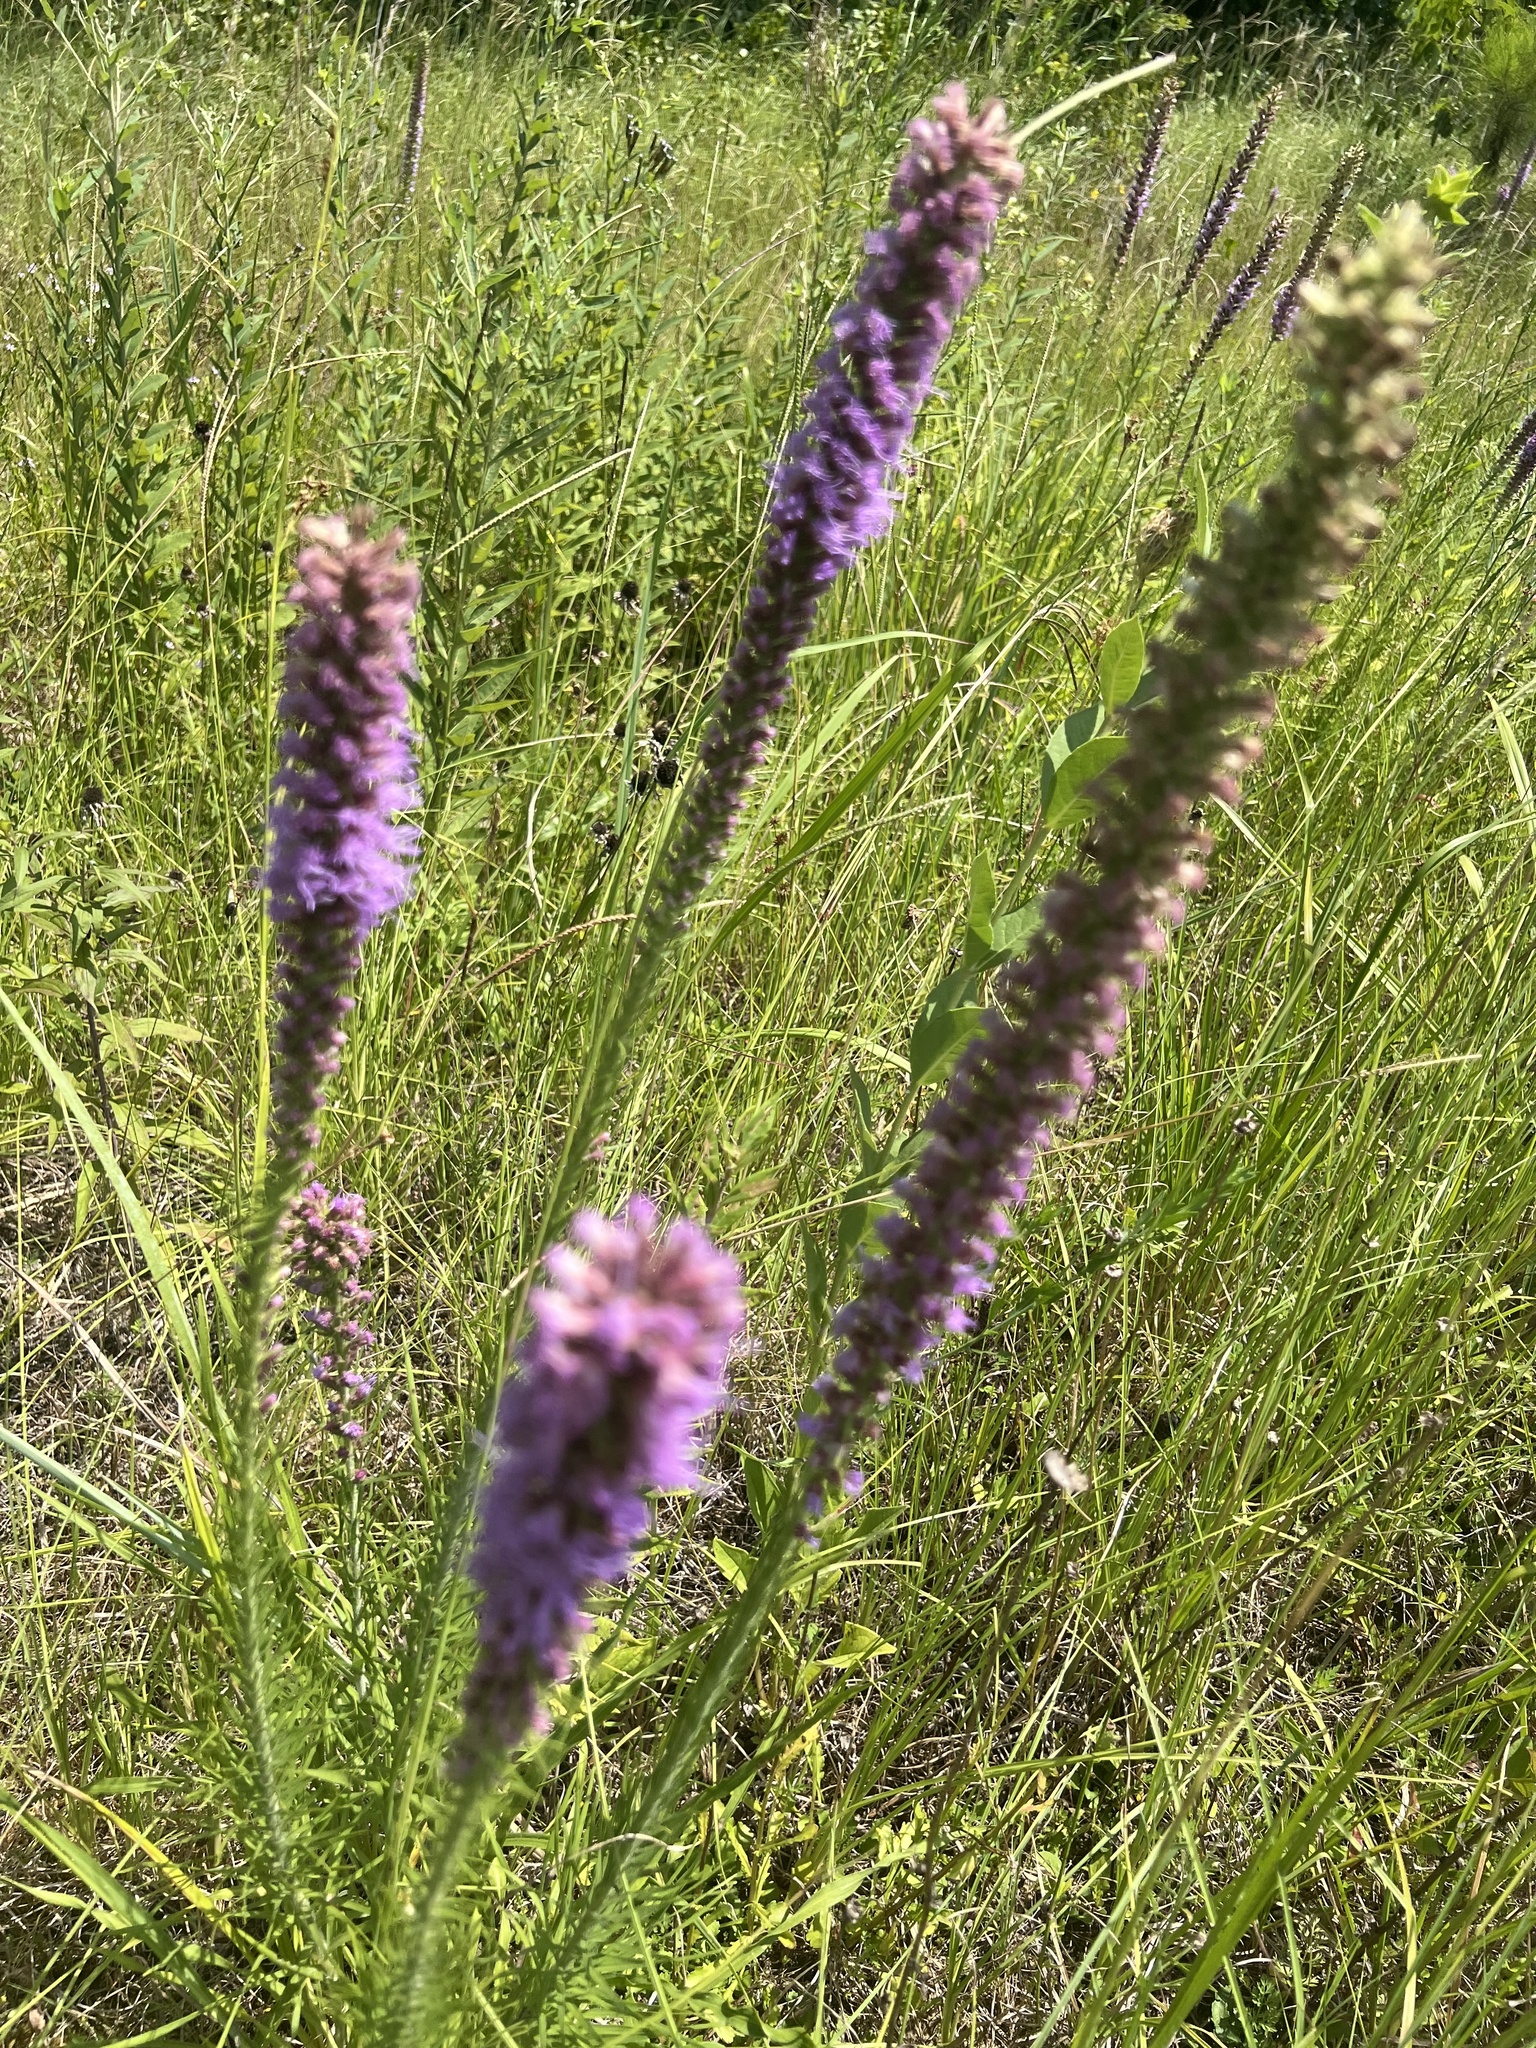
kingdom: Plantae
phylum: Tracheophyta
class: Magnoliopsida
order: Asterales
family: Asteraceae
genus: Liatris
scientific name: Liatris pycnostachya
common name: Cattail gayfeather
